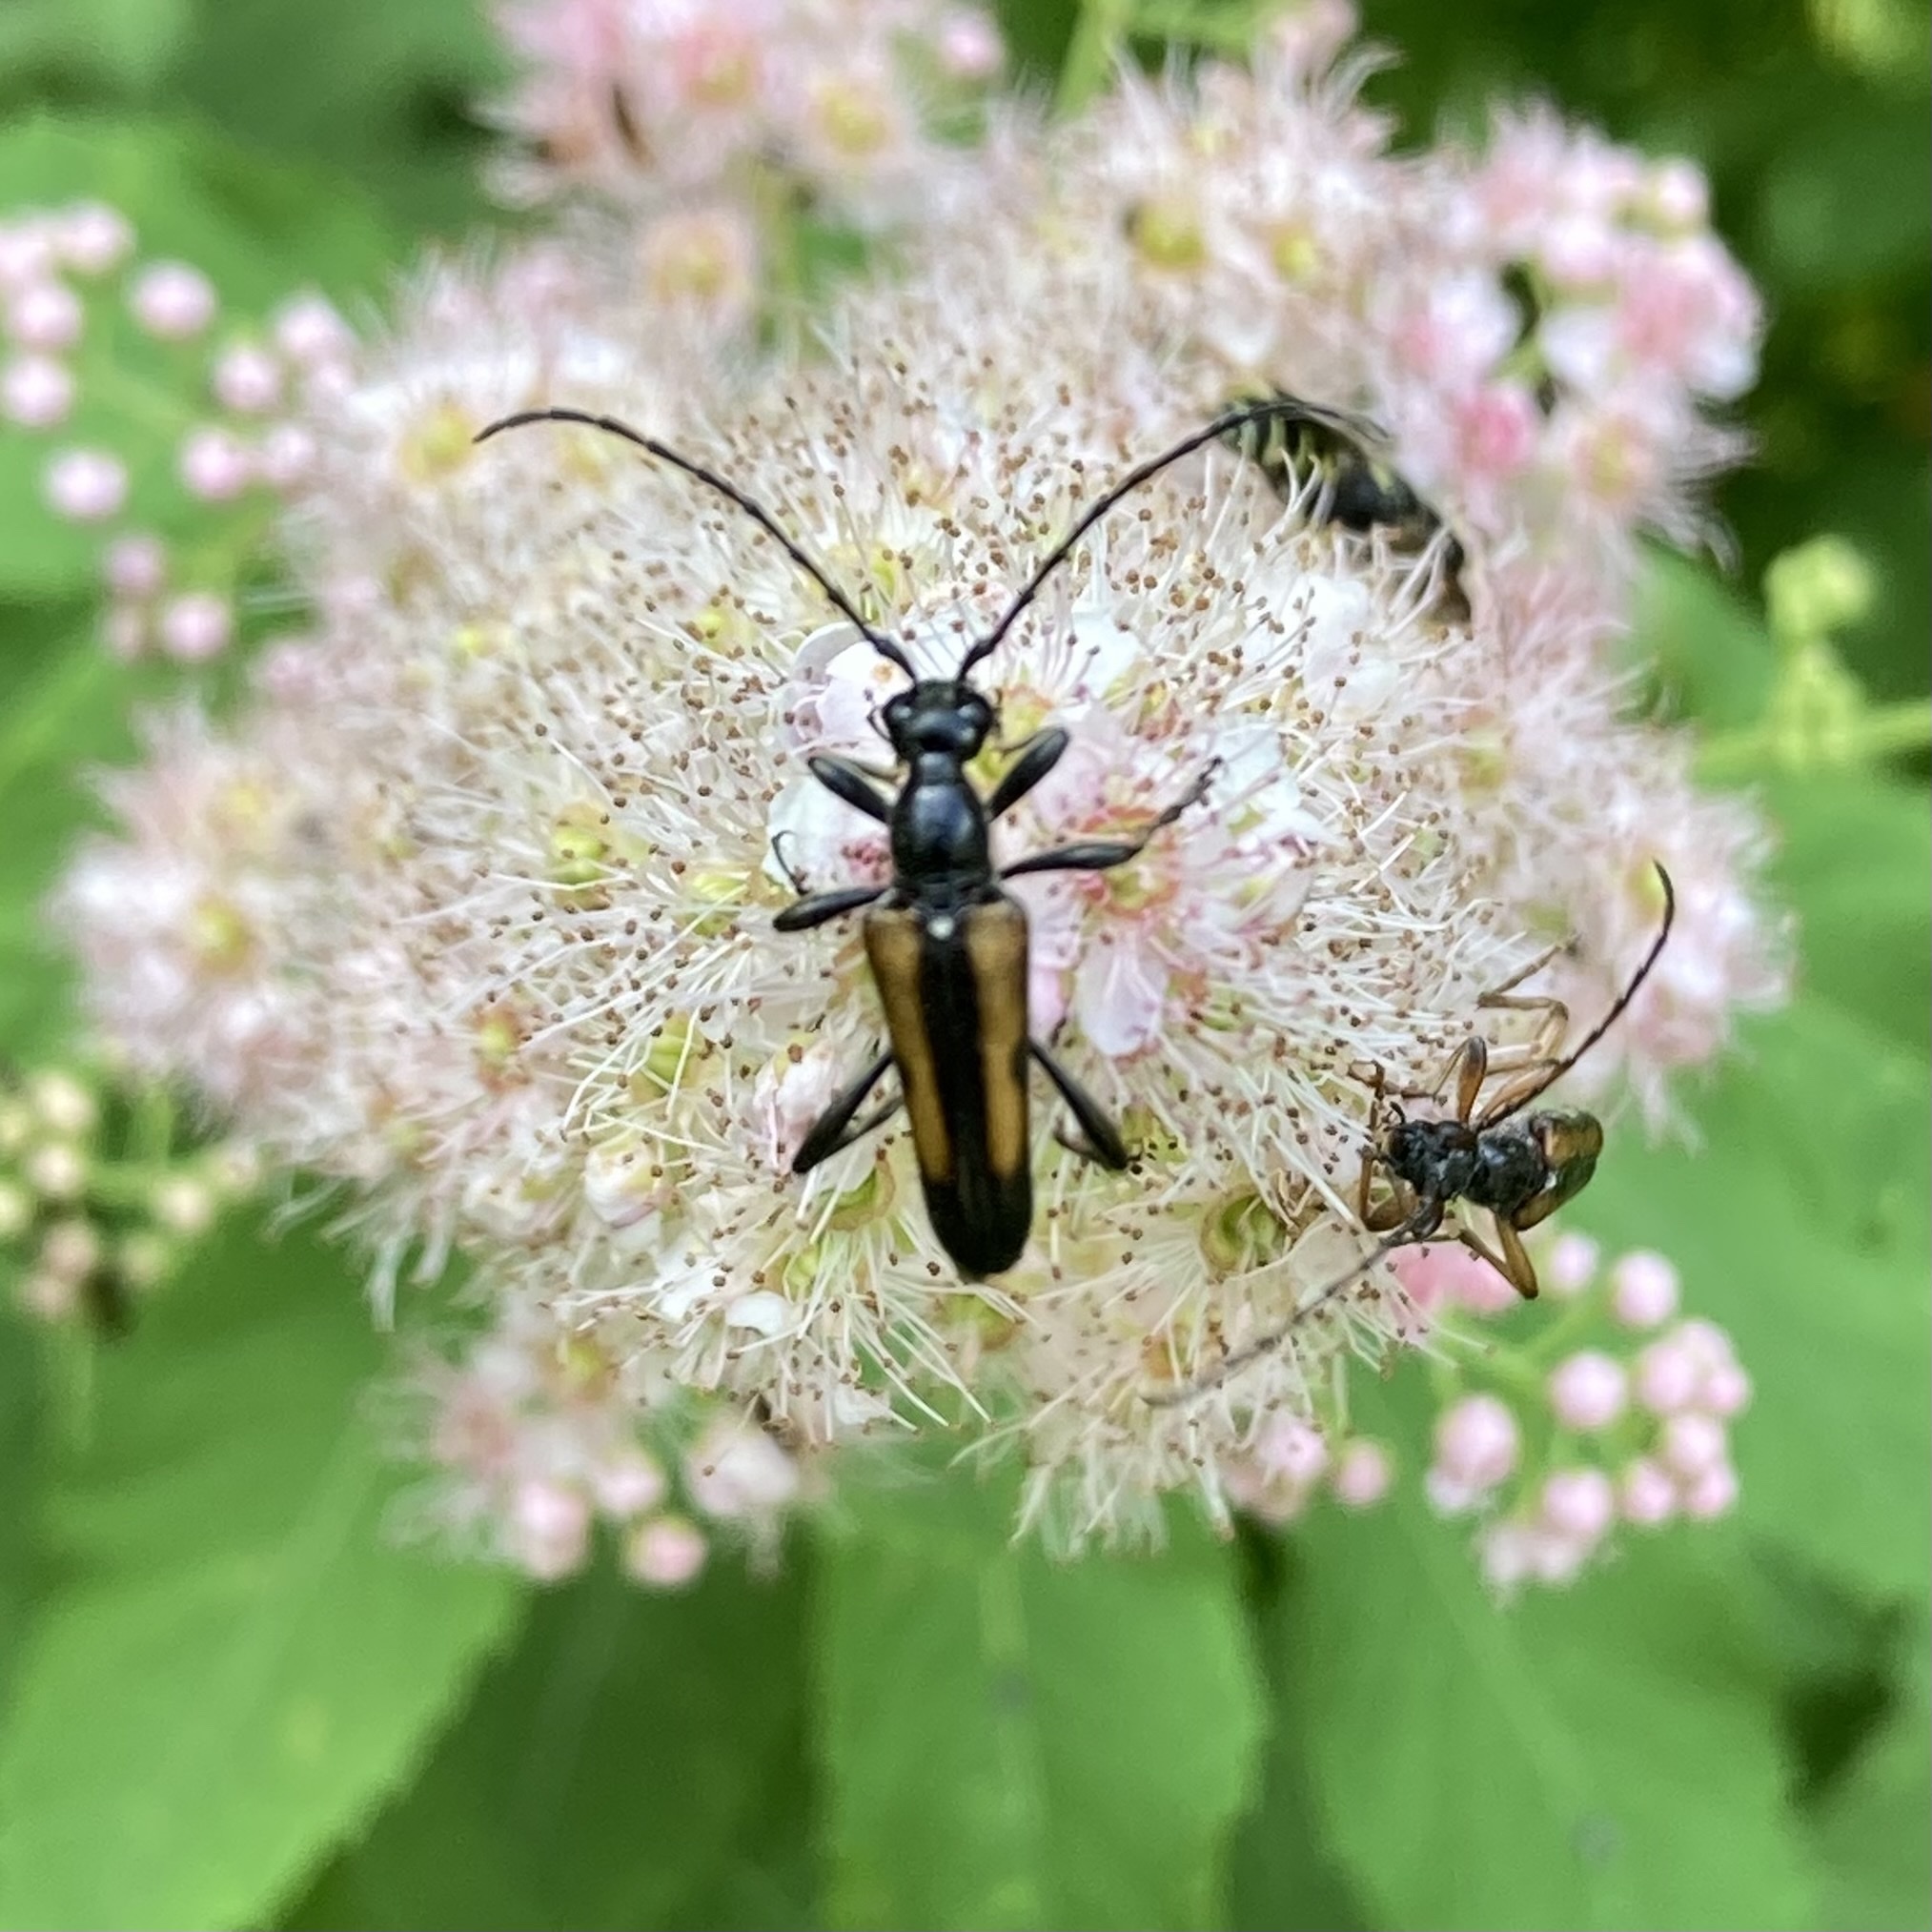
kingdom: Animalia
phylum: Arthropoda
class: Insecta
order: Coleoptera
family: Cerambycidae
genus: Strangalepta
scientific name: Strangalepta abbreviata
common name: Strangalepta flower longhorn beetle
